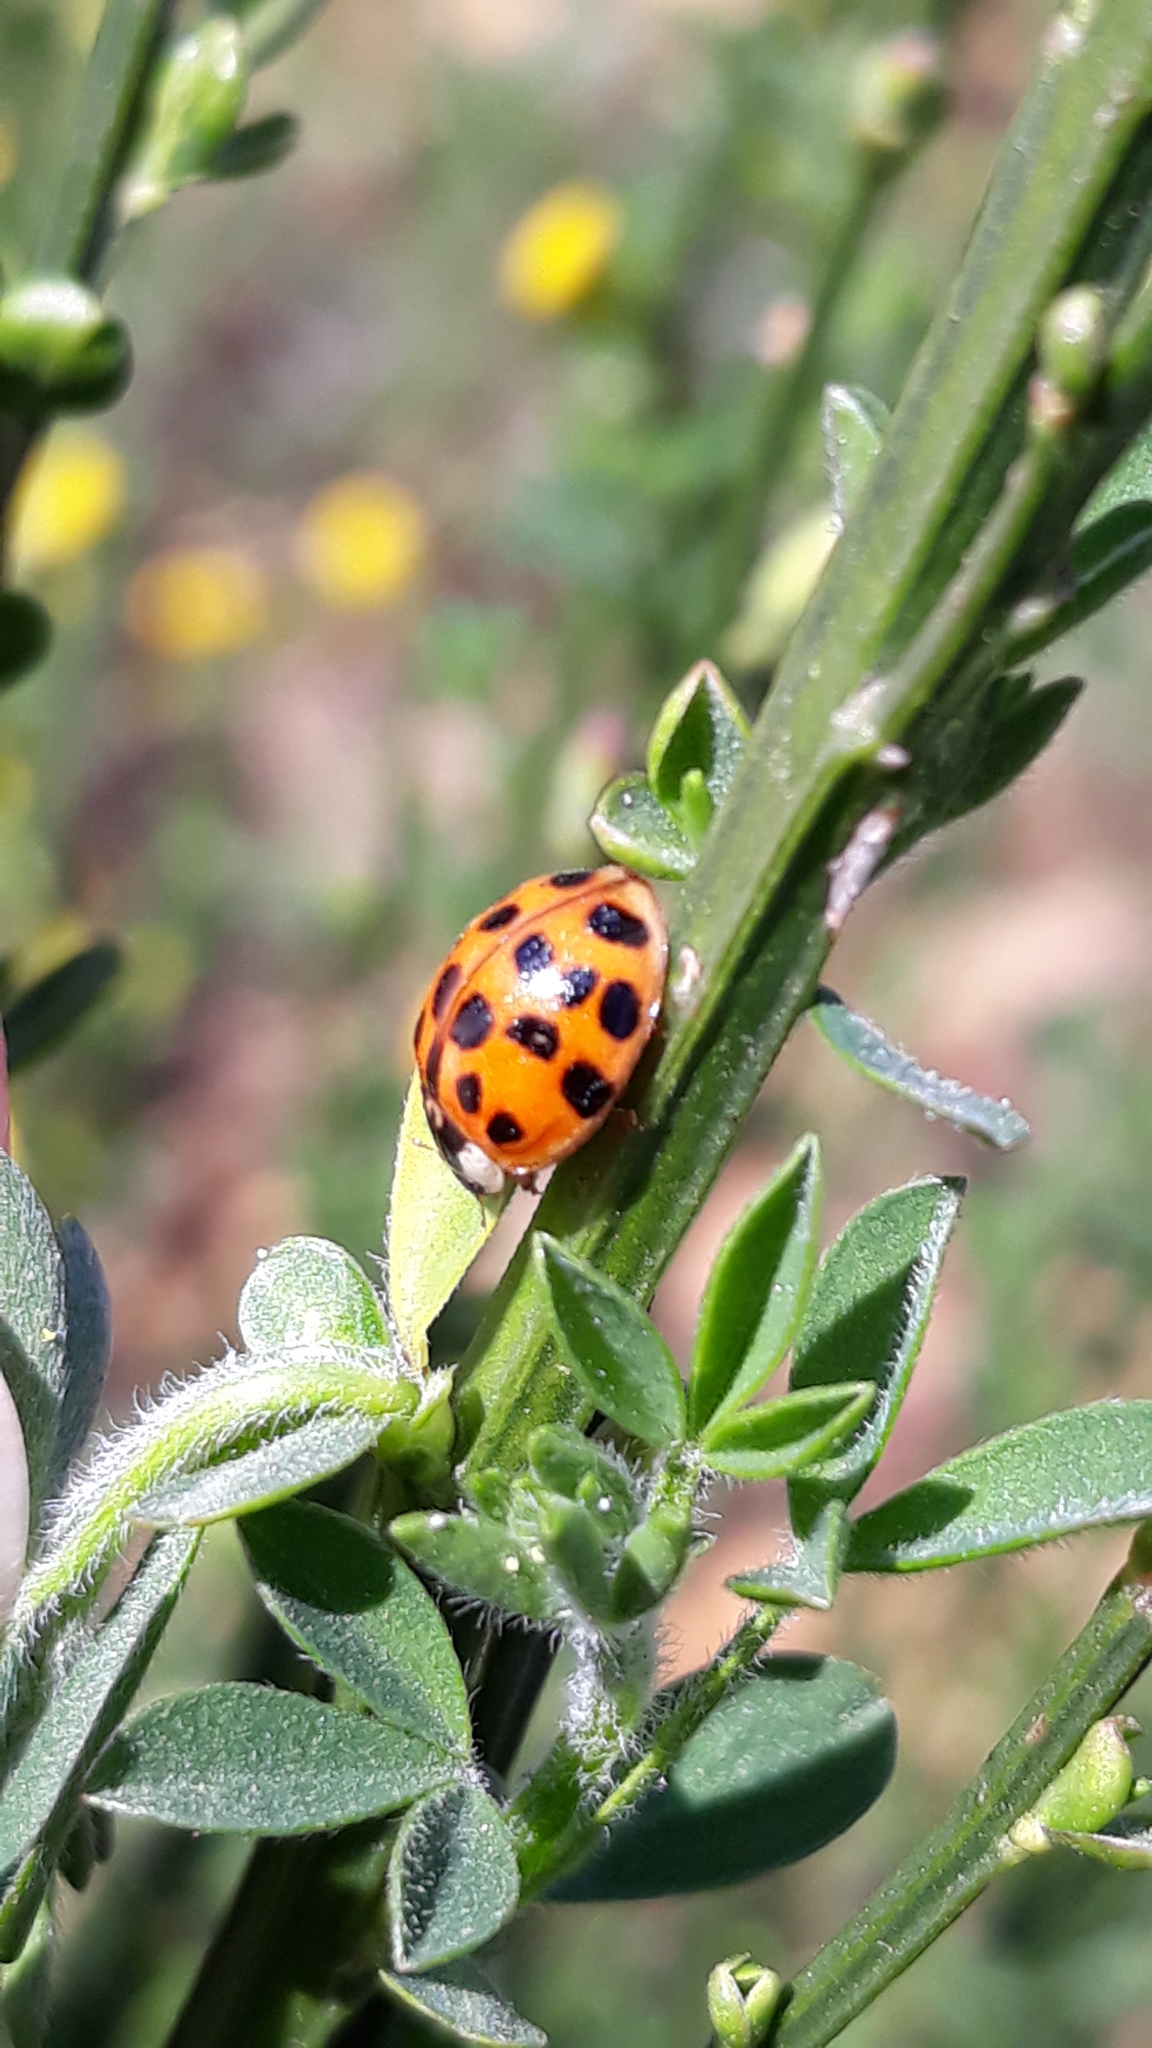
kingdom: Animalia
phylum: Arthropoda
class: Insecta
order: Coleoptera
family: Coccinellidae
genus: Harmonia
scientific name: Harmonia axyridis
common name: Harlequin ladybird
